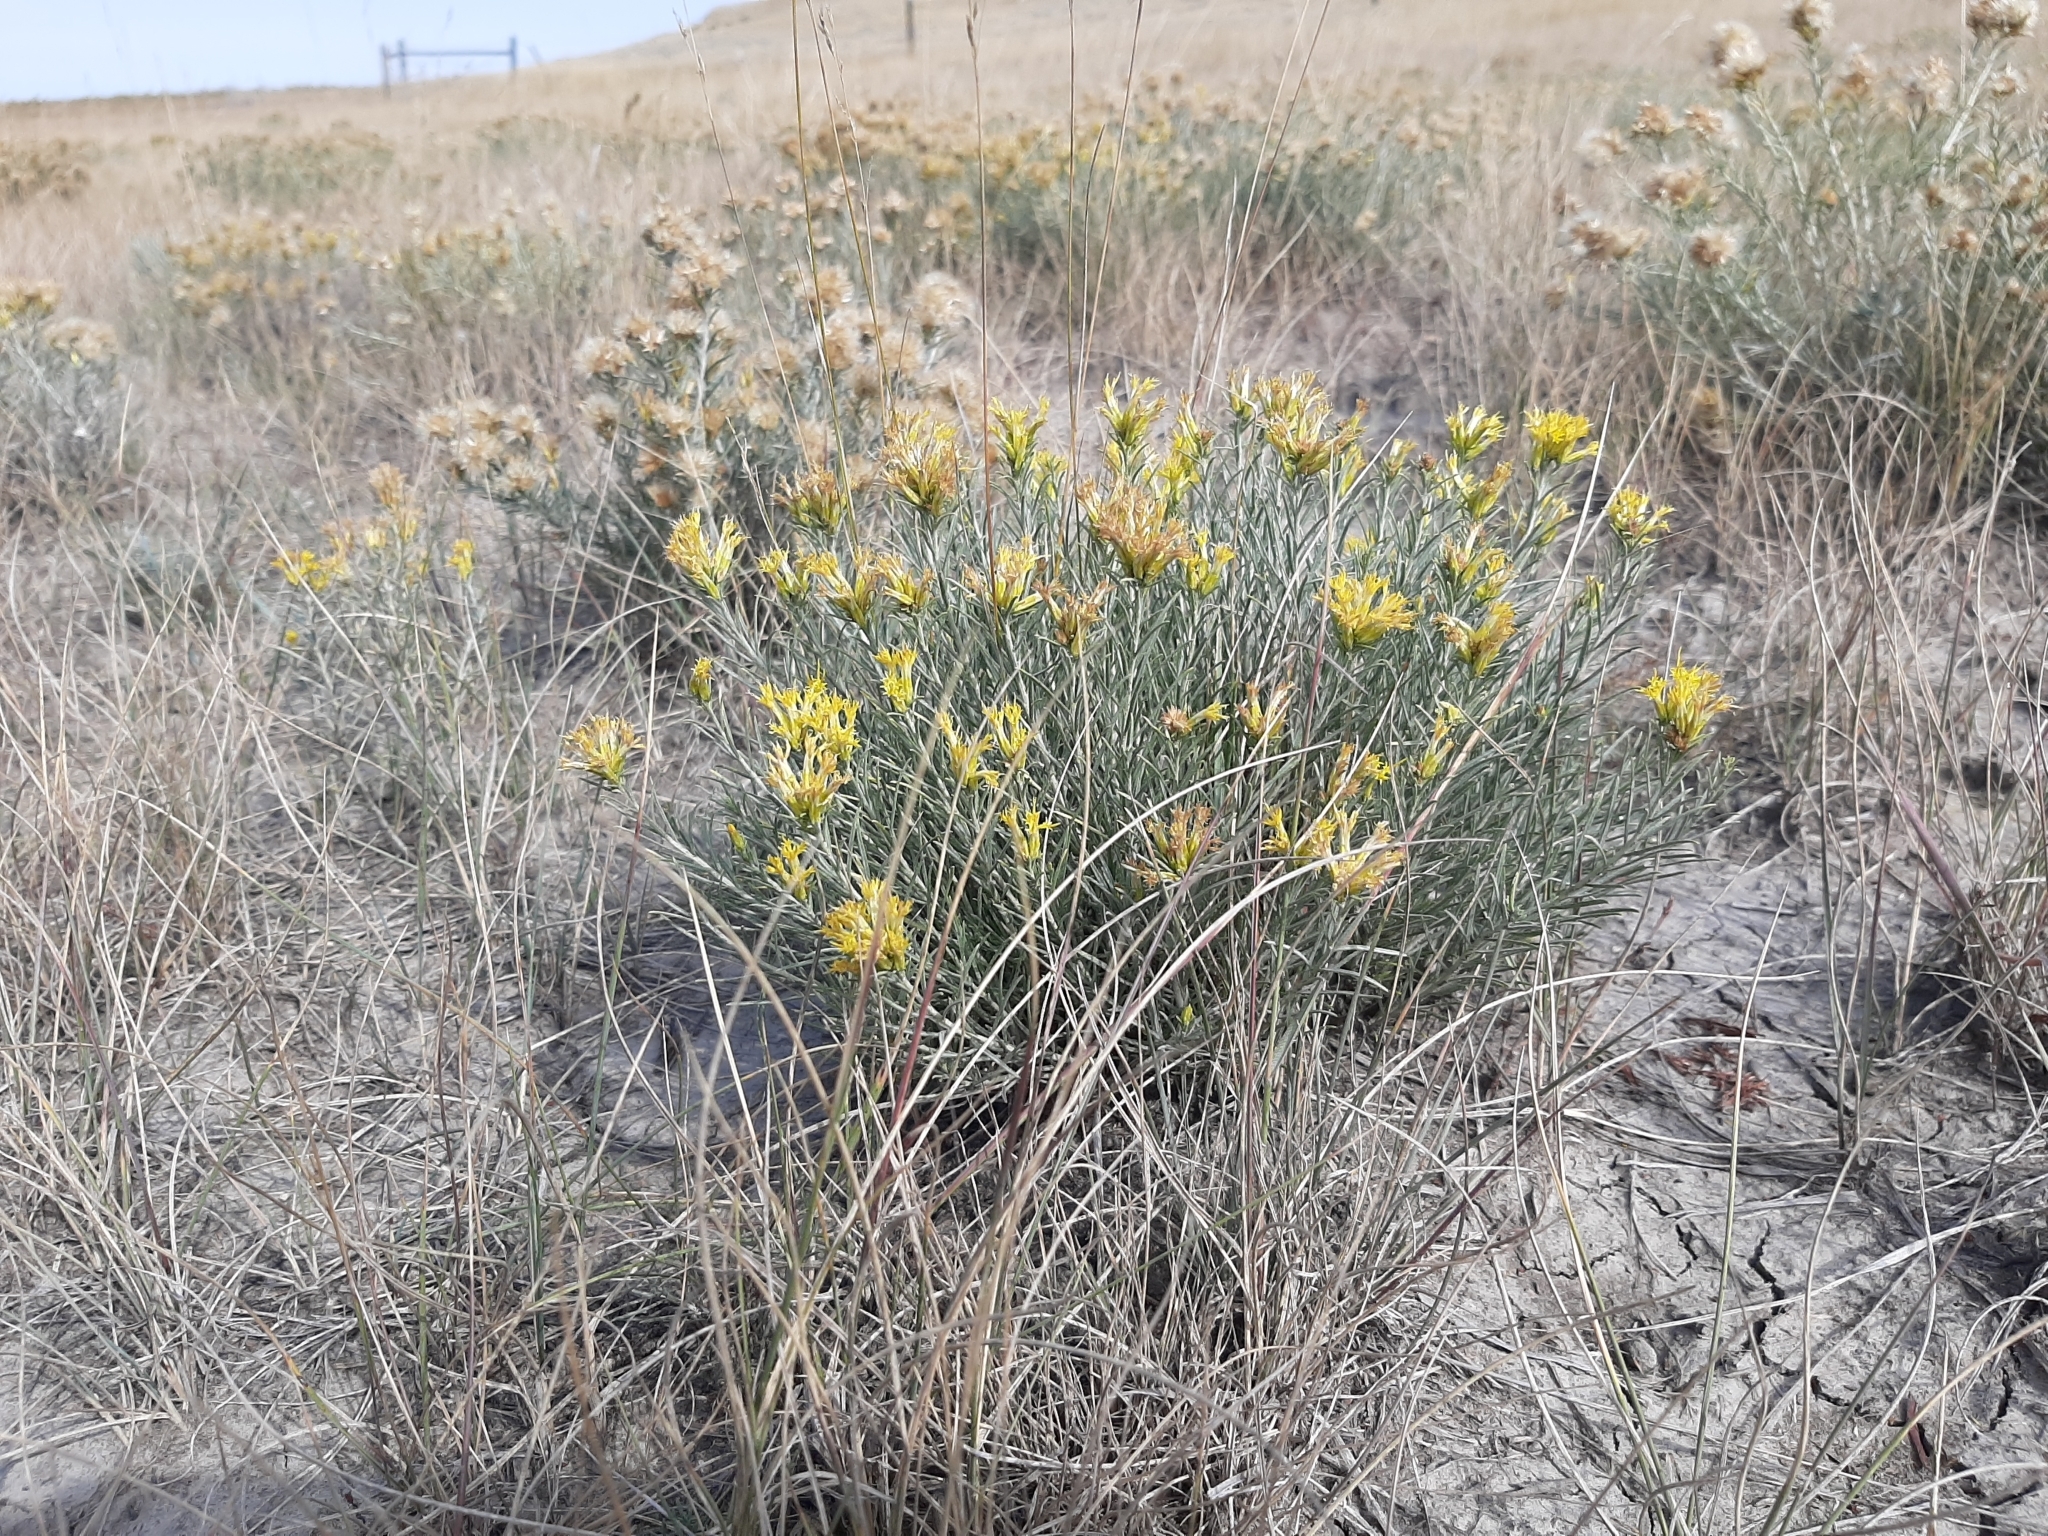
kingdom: Plantae
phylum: Tracheophyta
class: Magnoliopsida
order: Asterales
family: Asteraceae
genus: Ericameria
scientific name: Ericameria nauseosa
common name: Rubber rabbitbrush
